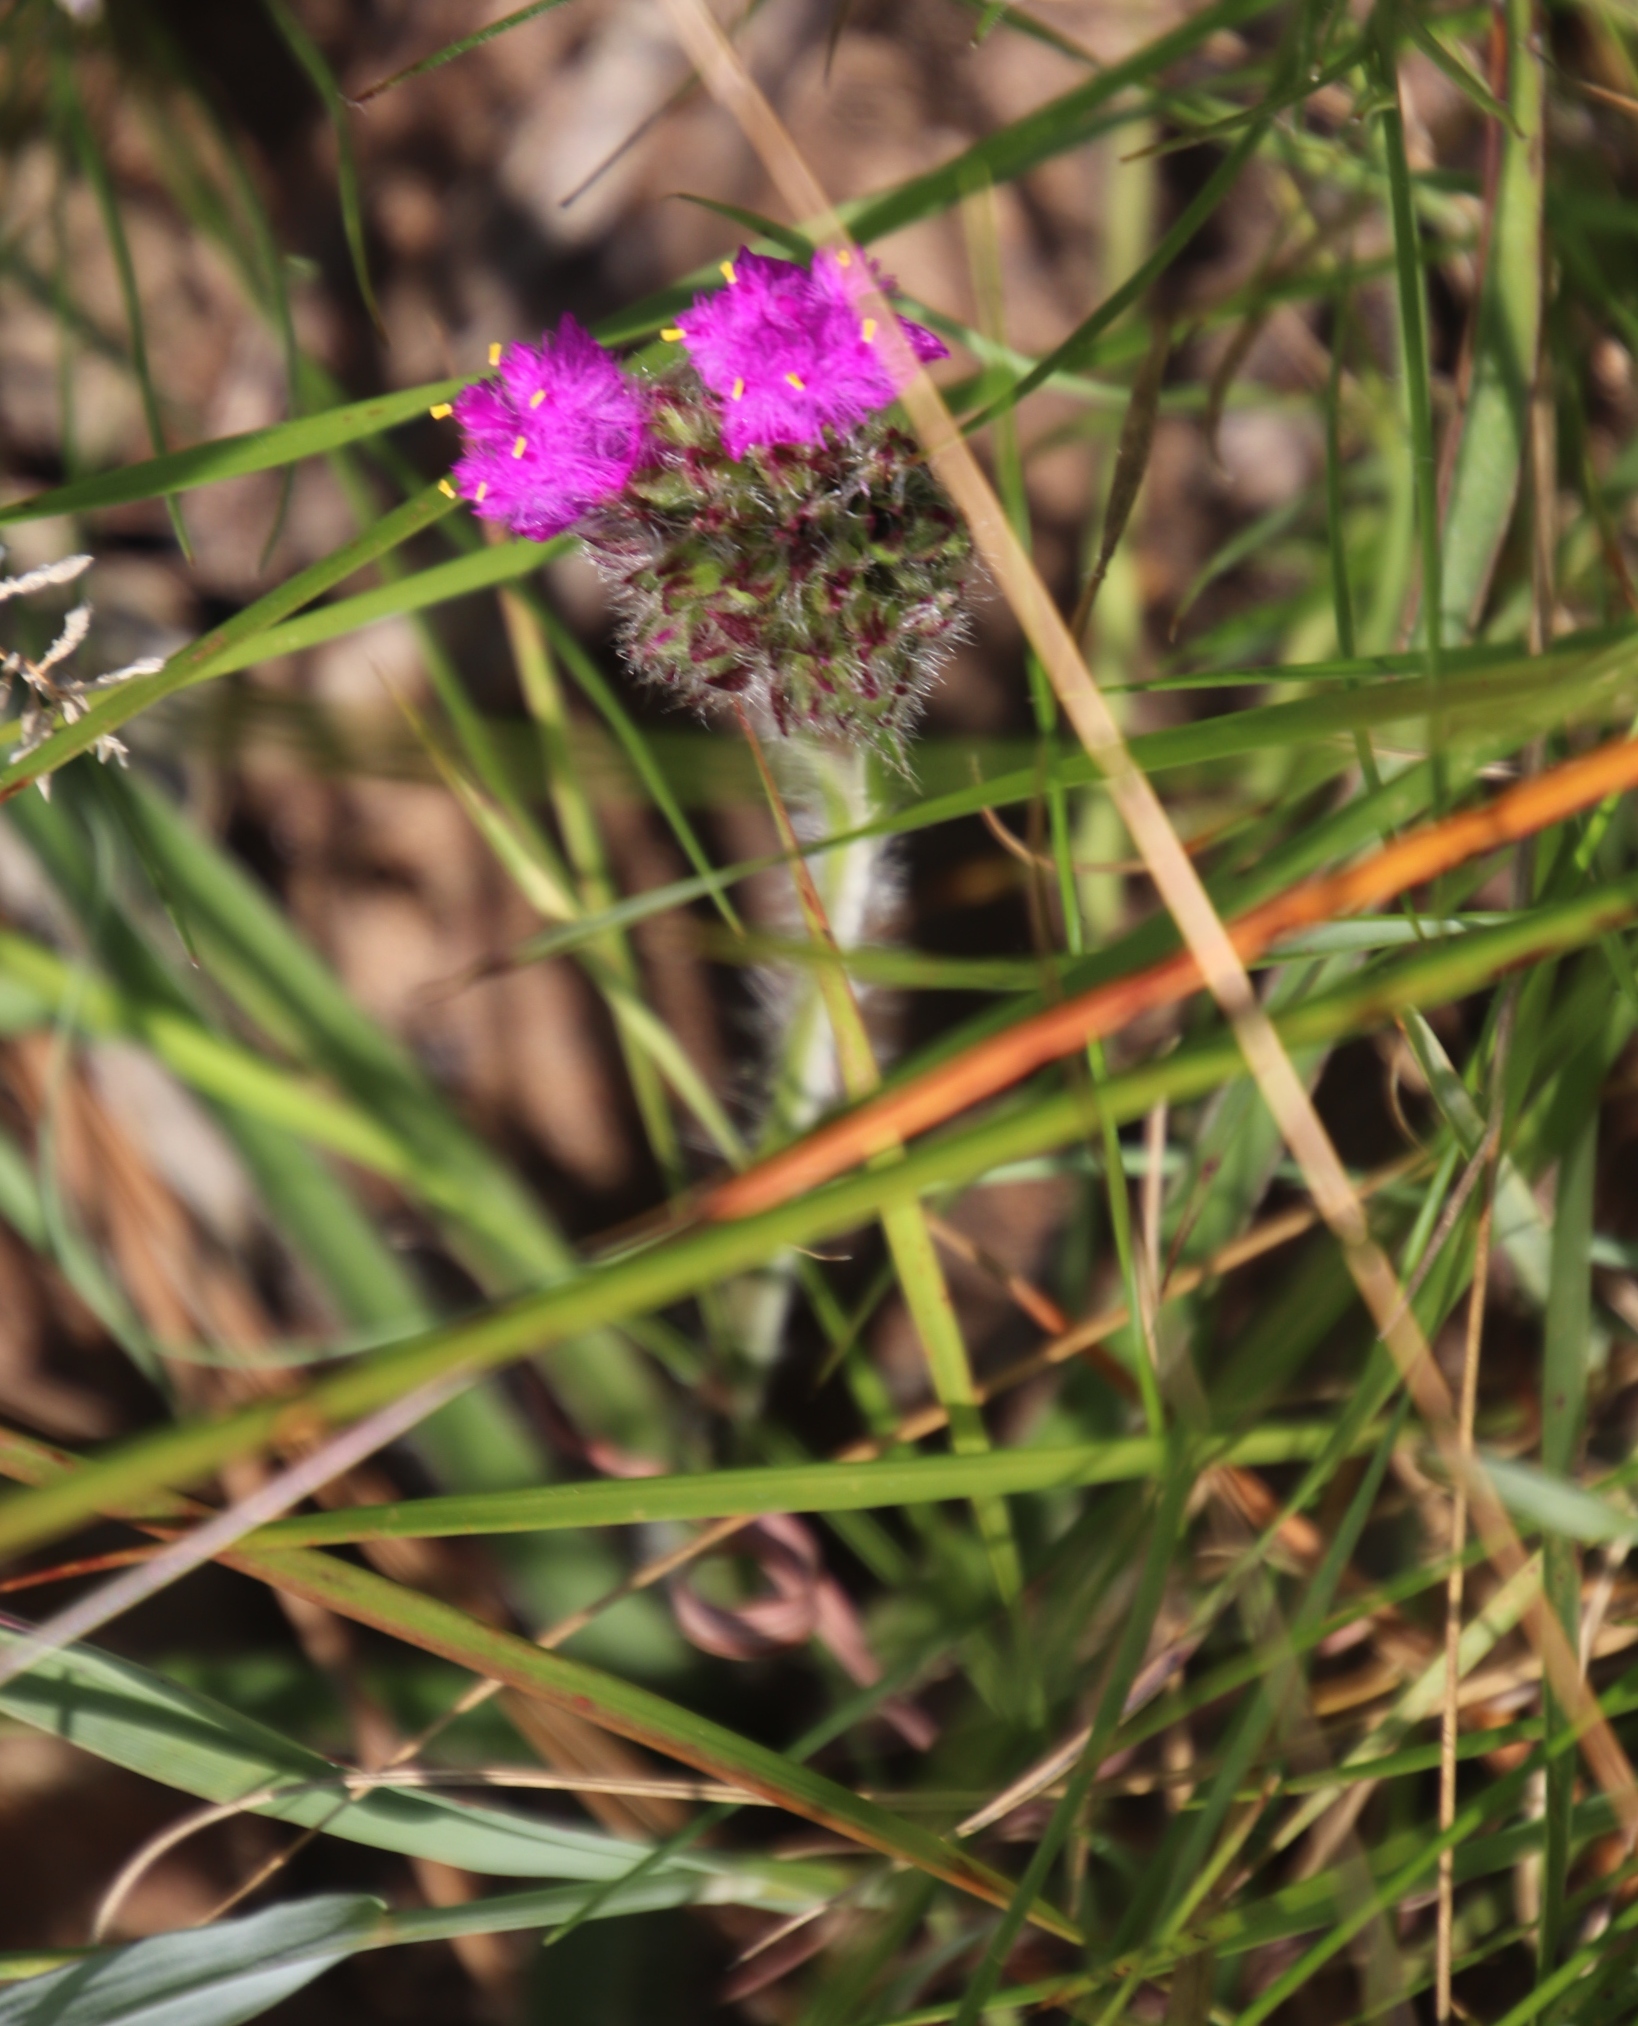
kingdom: Plantae
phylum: Tracheophyta
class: Liliopsida
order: Commelinales
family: Commelinaceae
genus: Cyanotis
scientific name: Cyanotis speciosa
